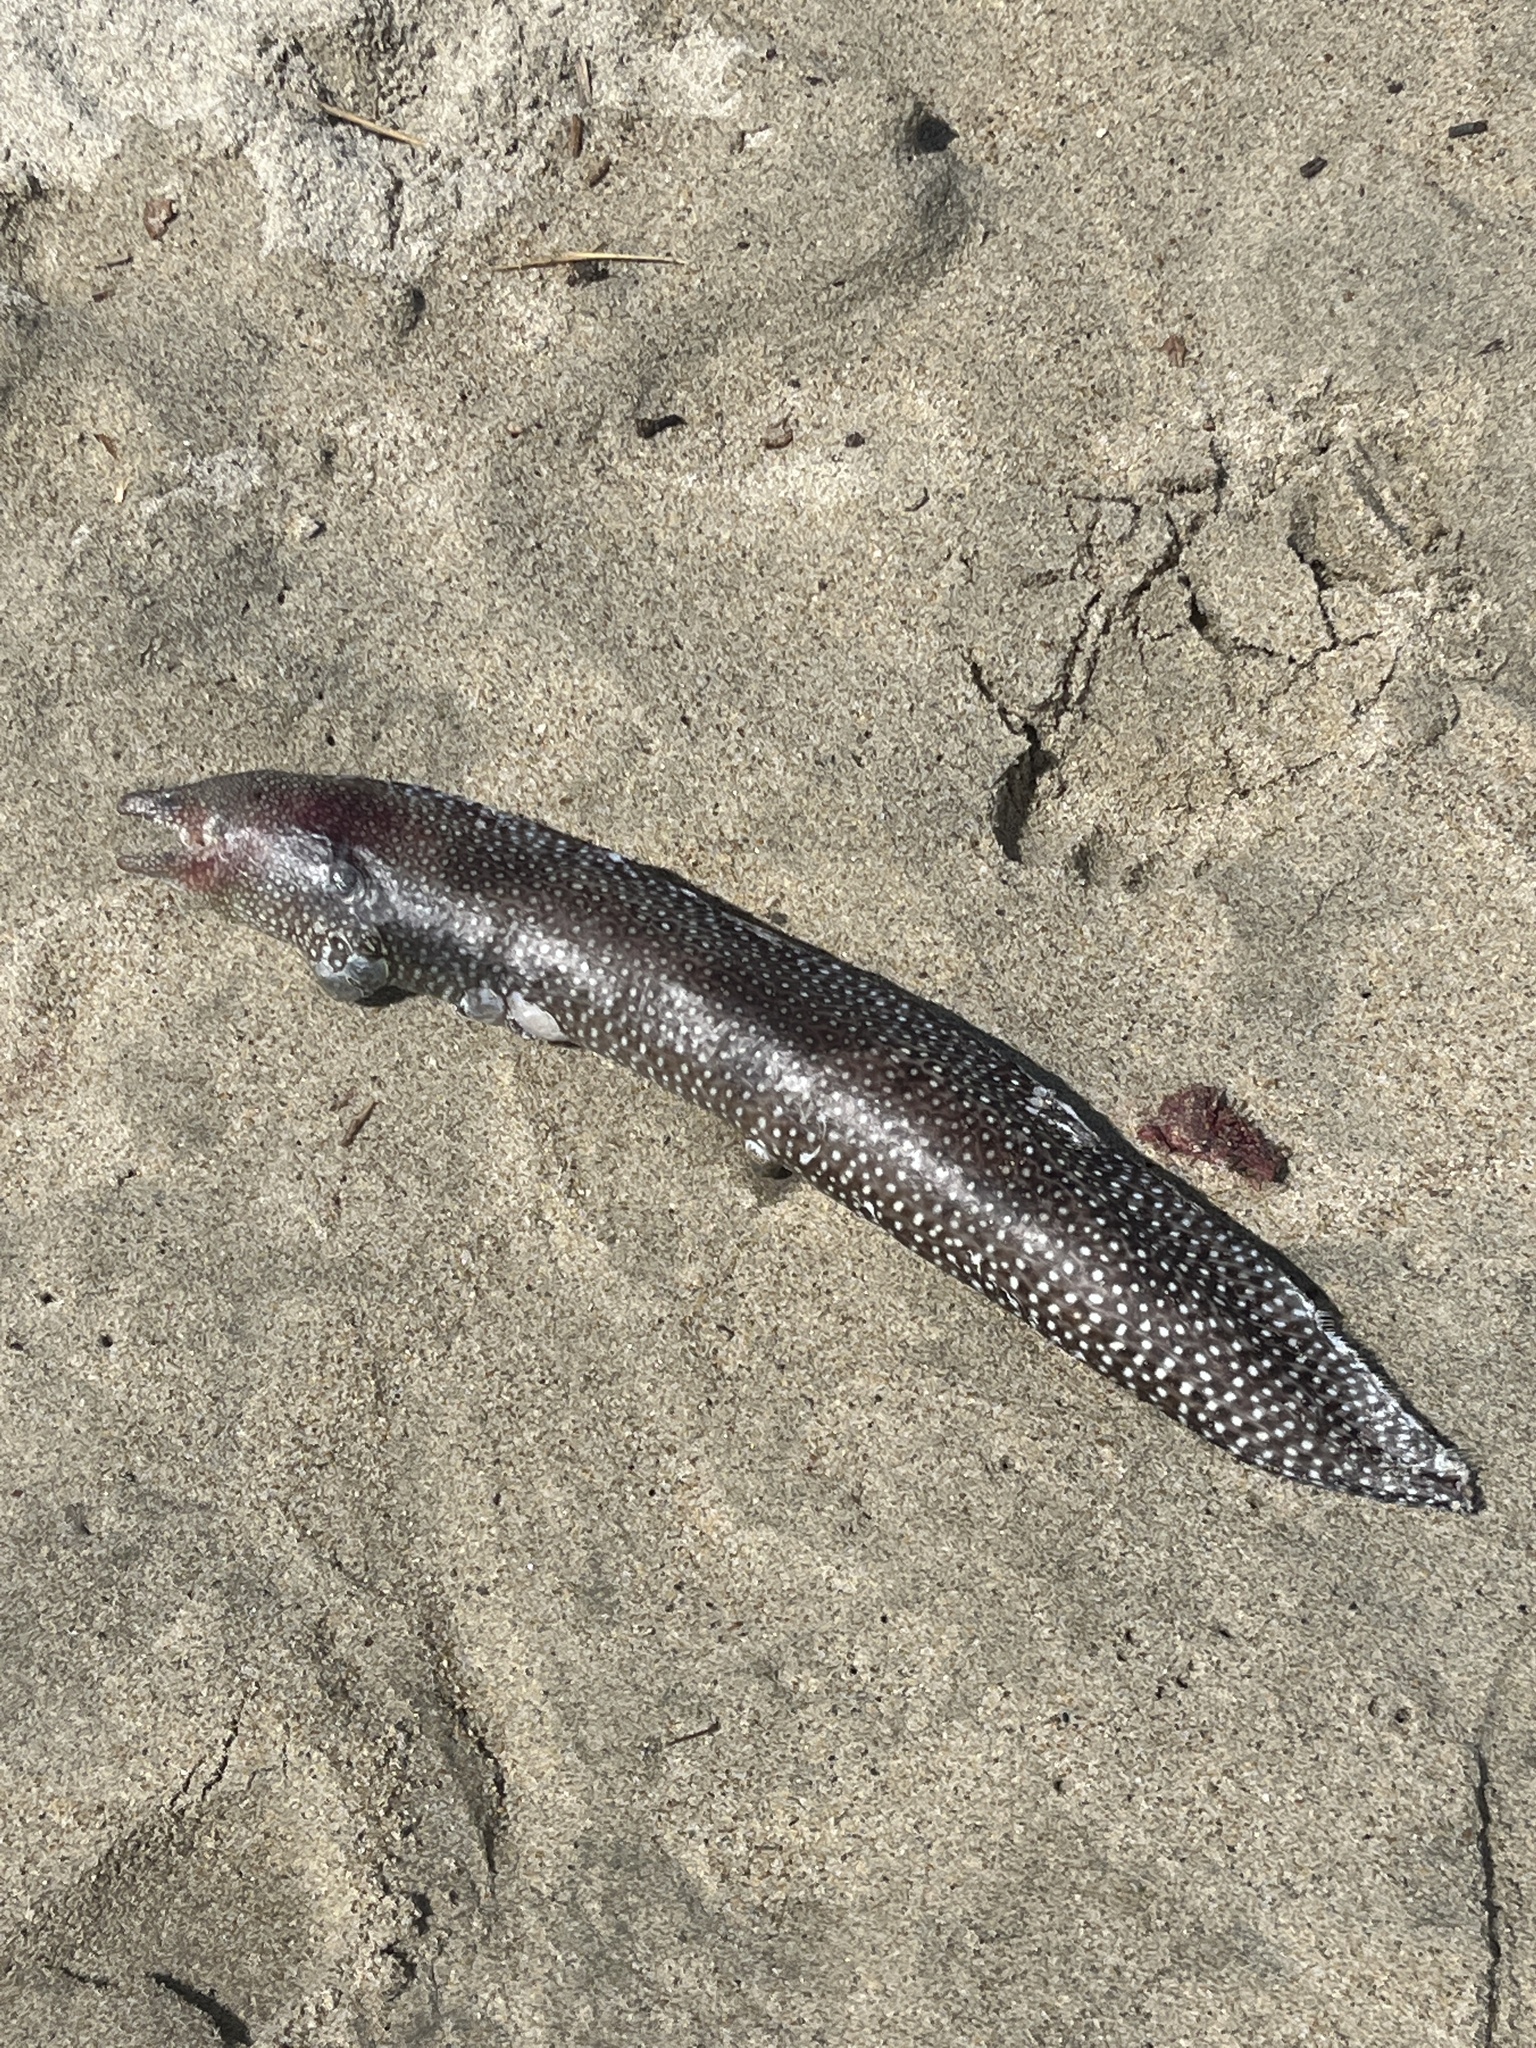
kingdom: Animalia
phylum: Chordata
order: Anguilliformes
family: Muraenidae
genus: Muraena
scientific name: Muraena lentiginosa
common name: Jewel moray
